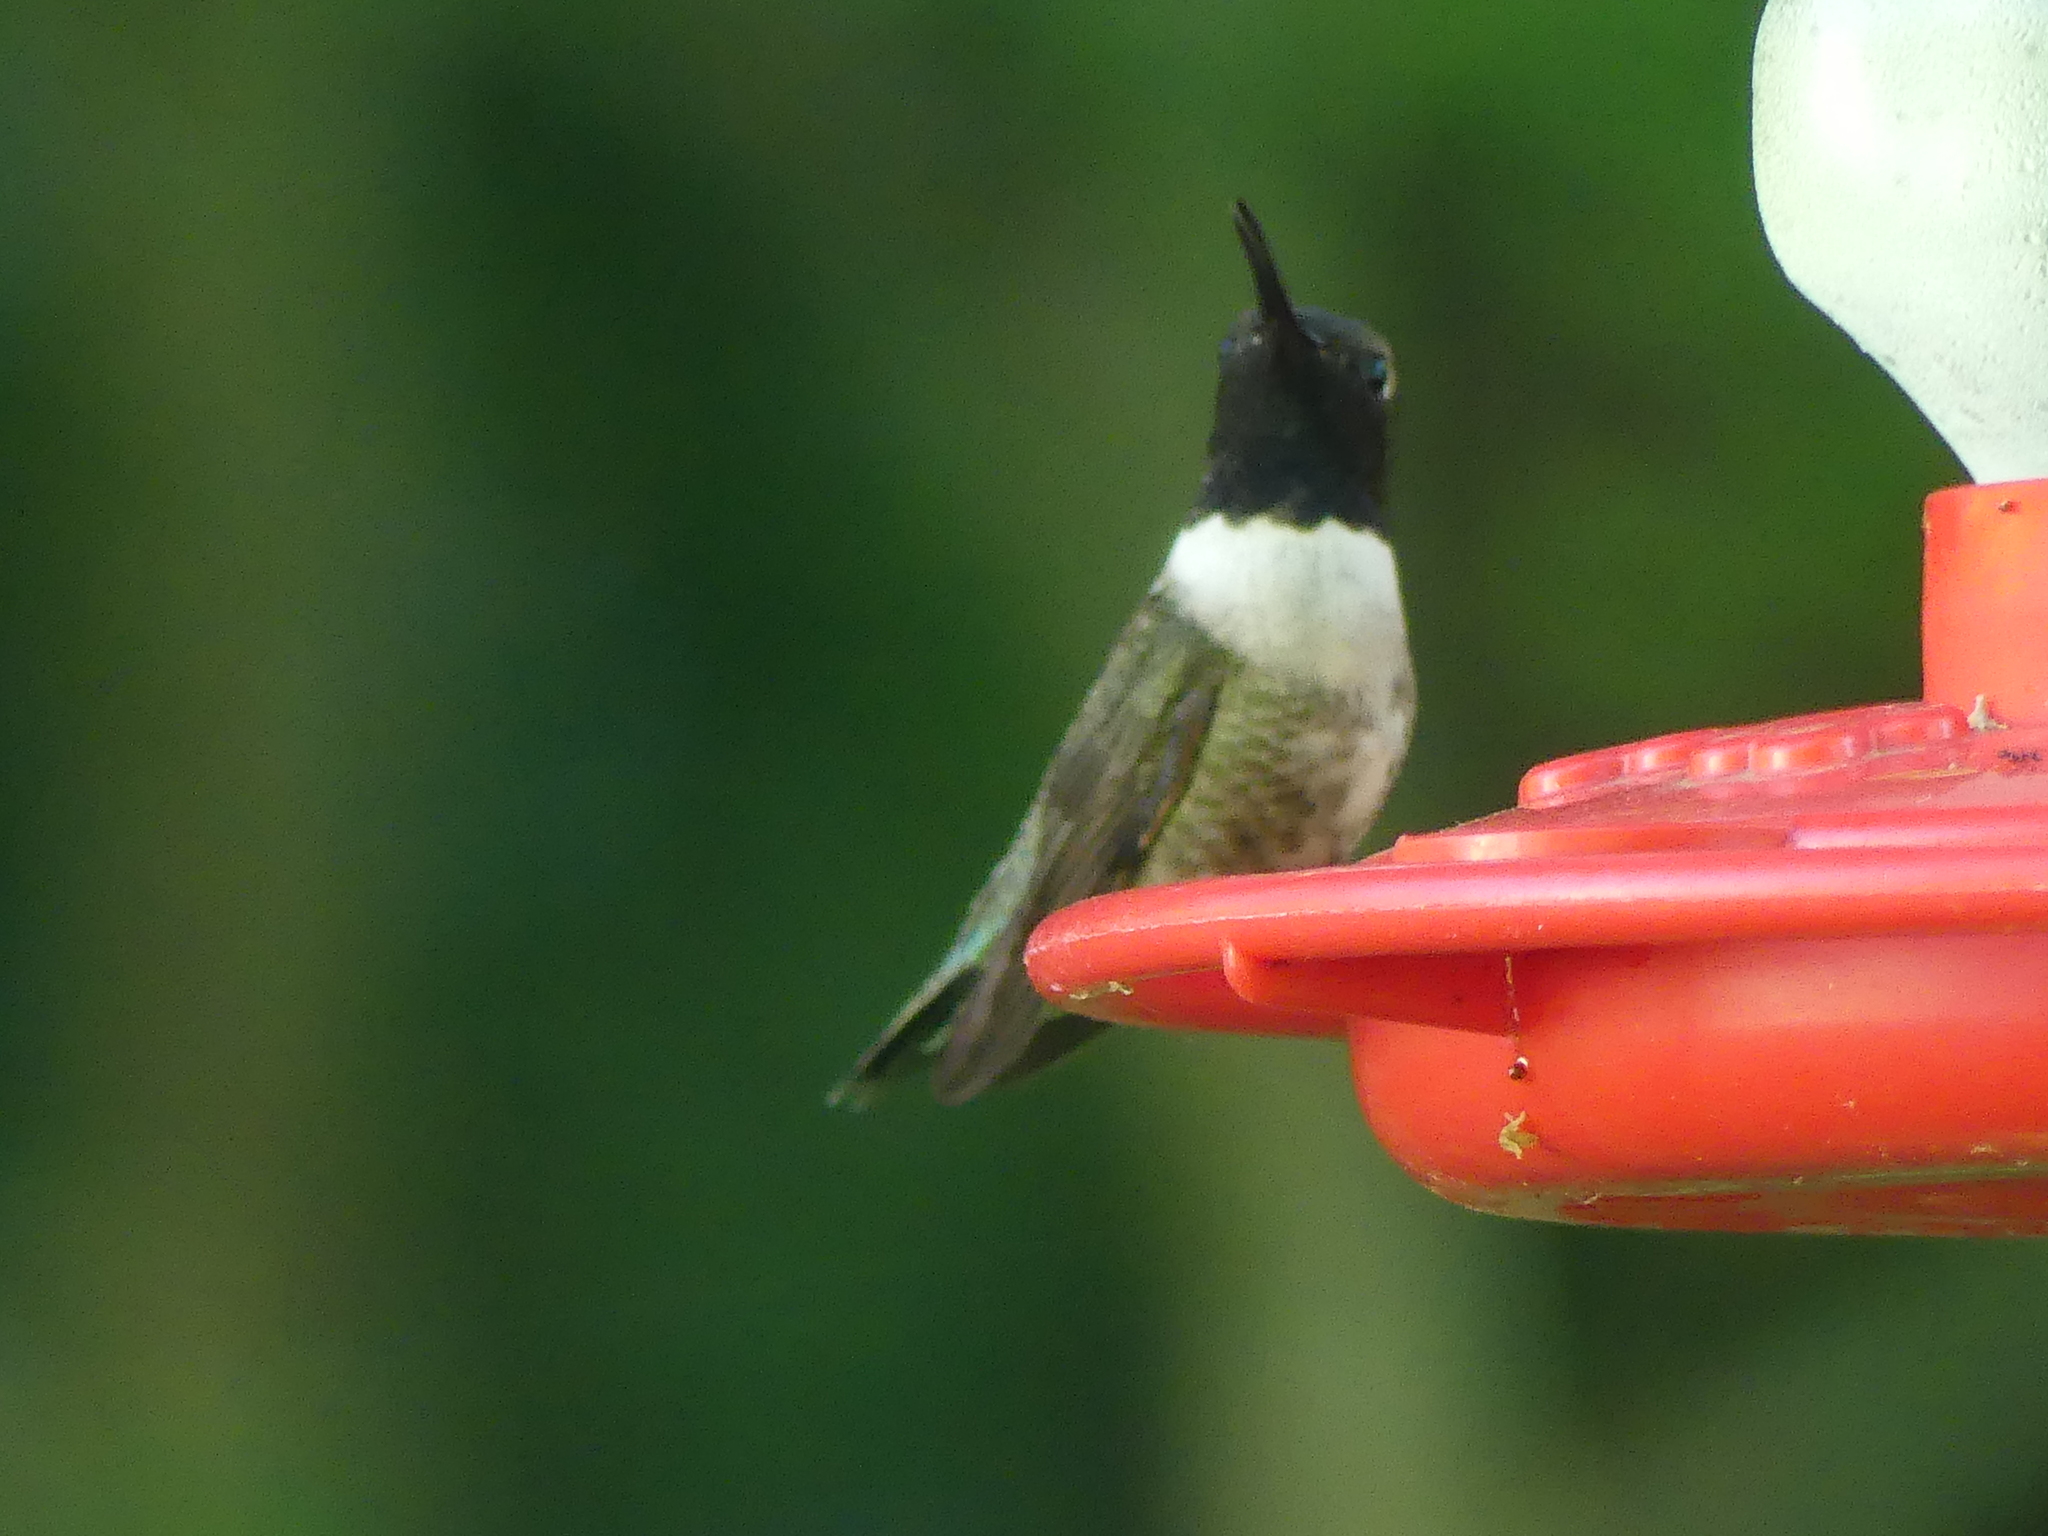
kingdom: Animalia
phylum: Chordata
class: Aves
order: Apodiformes
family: Trochilidae
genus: Archilochus
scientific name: Archilochus alexandri
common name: Black-chinned hummingbird
